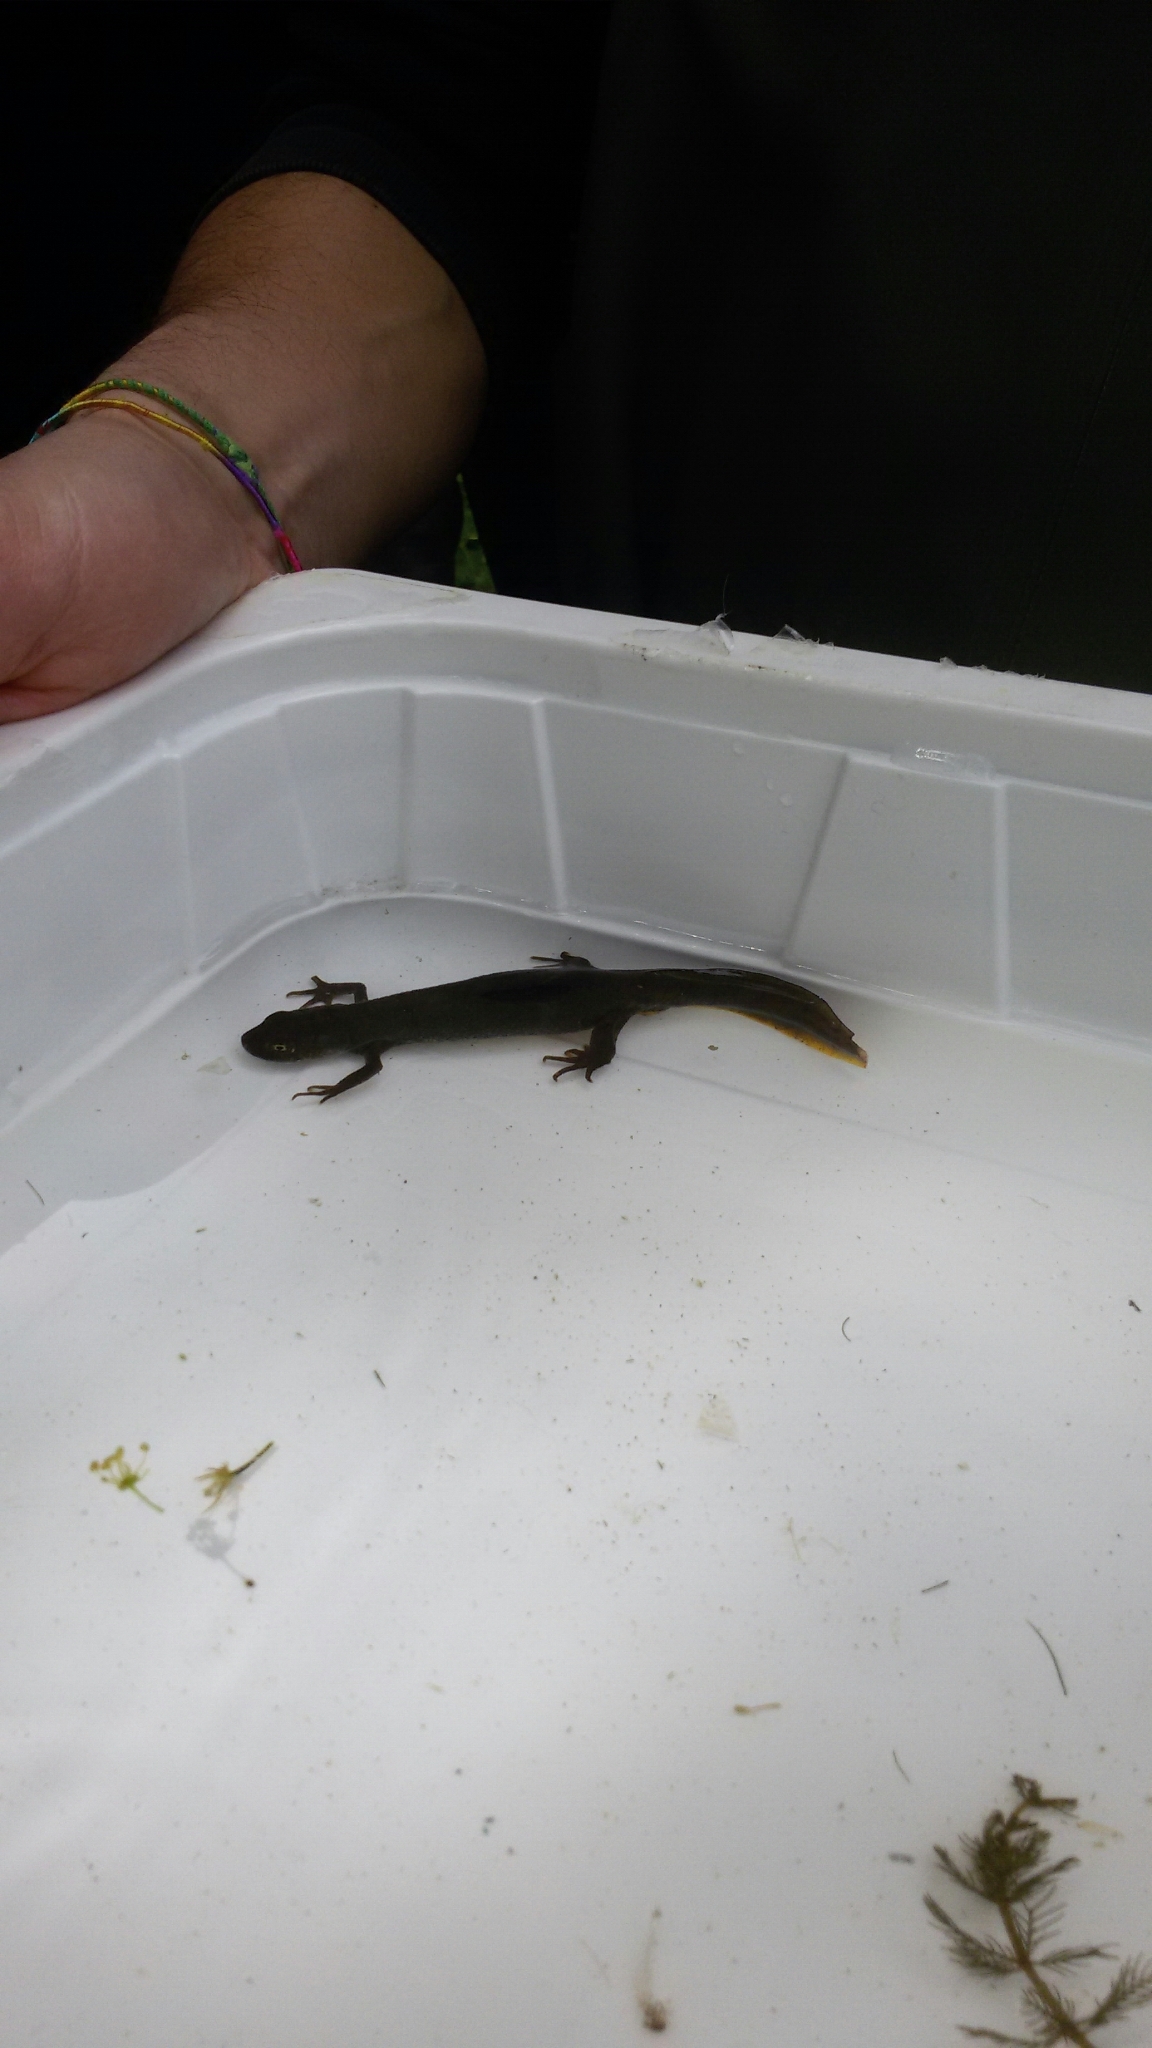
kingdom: Animalia
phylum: Chordata
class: Amphibia
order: Caudata
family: Salamandridae
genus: Triturus
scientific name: Triturus carnifex
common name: Italian crested newt
